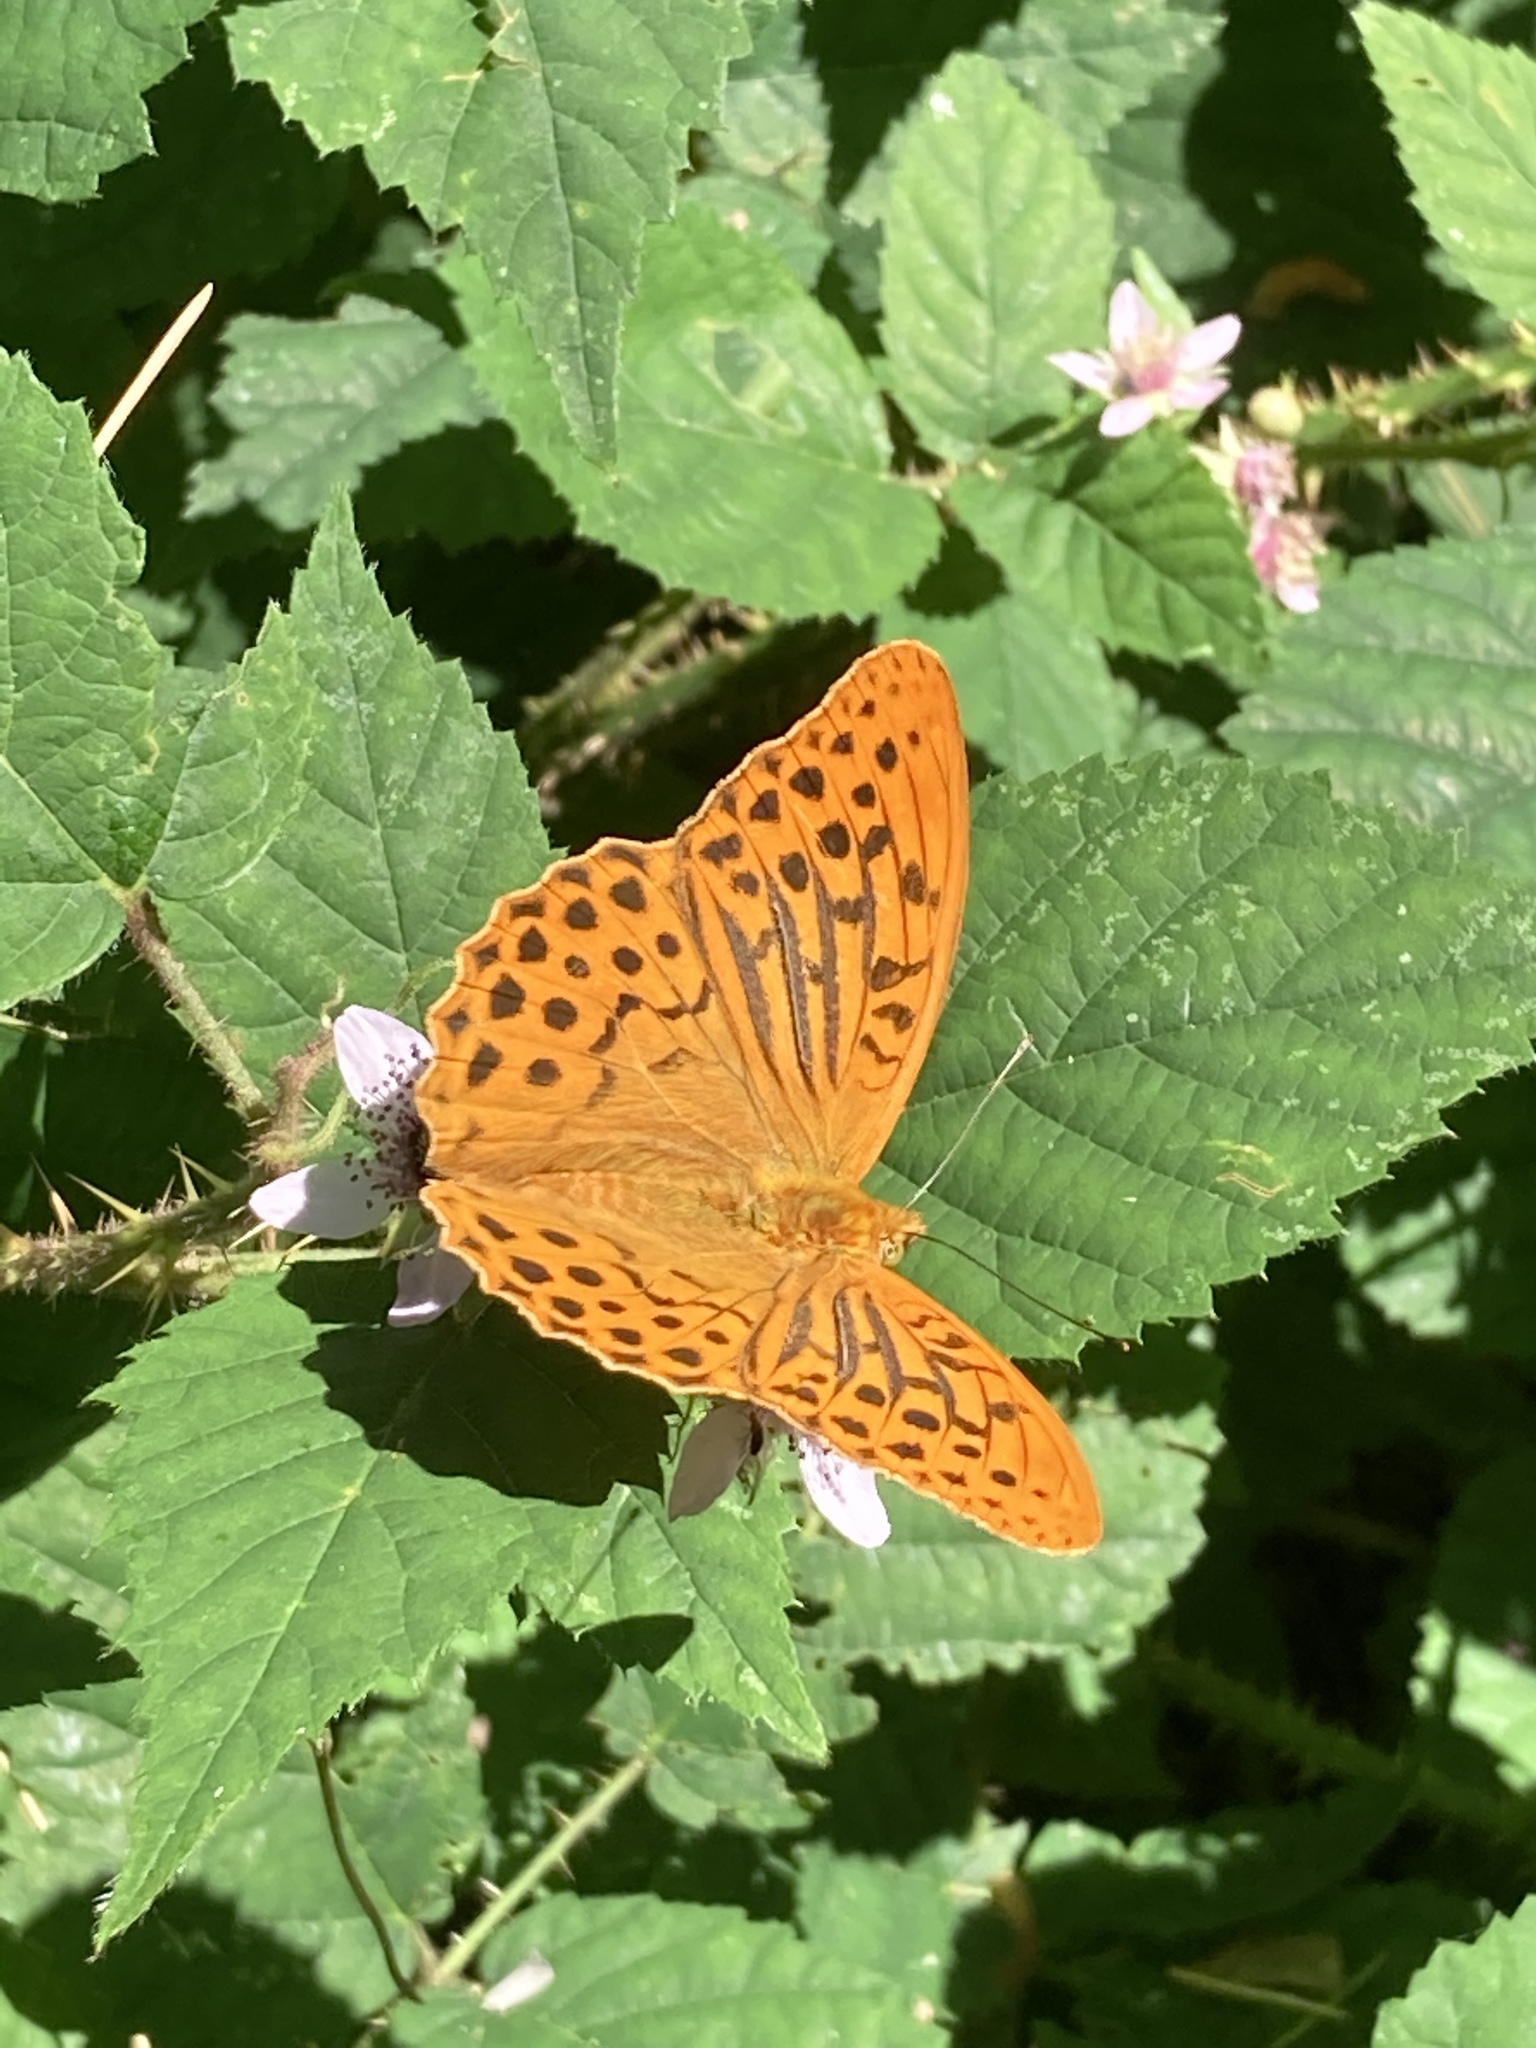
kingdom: Animalia
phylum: Arthropoda
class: Insecta
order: Lepidoptera
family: Nymphalidae
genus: Argynnis
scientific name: Argynnis paphia
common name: Silver-washed fritillary
